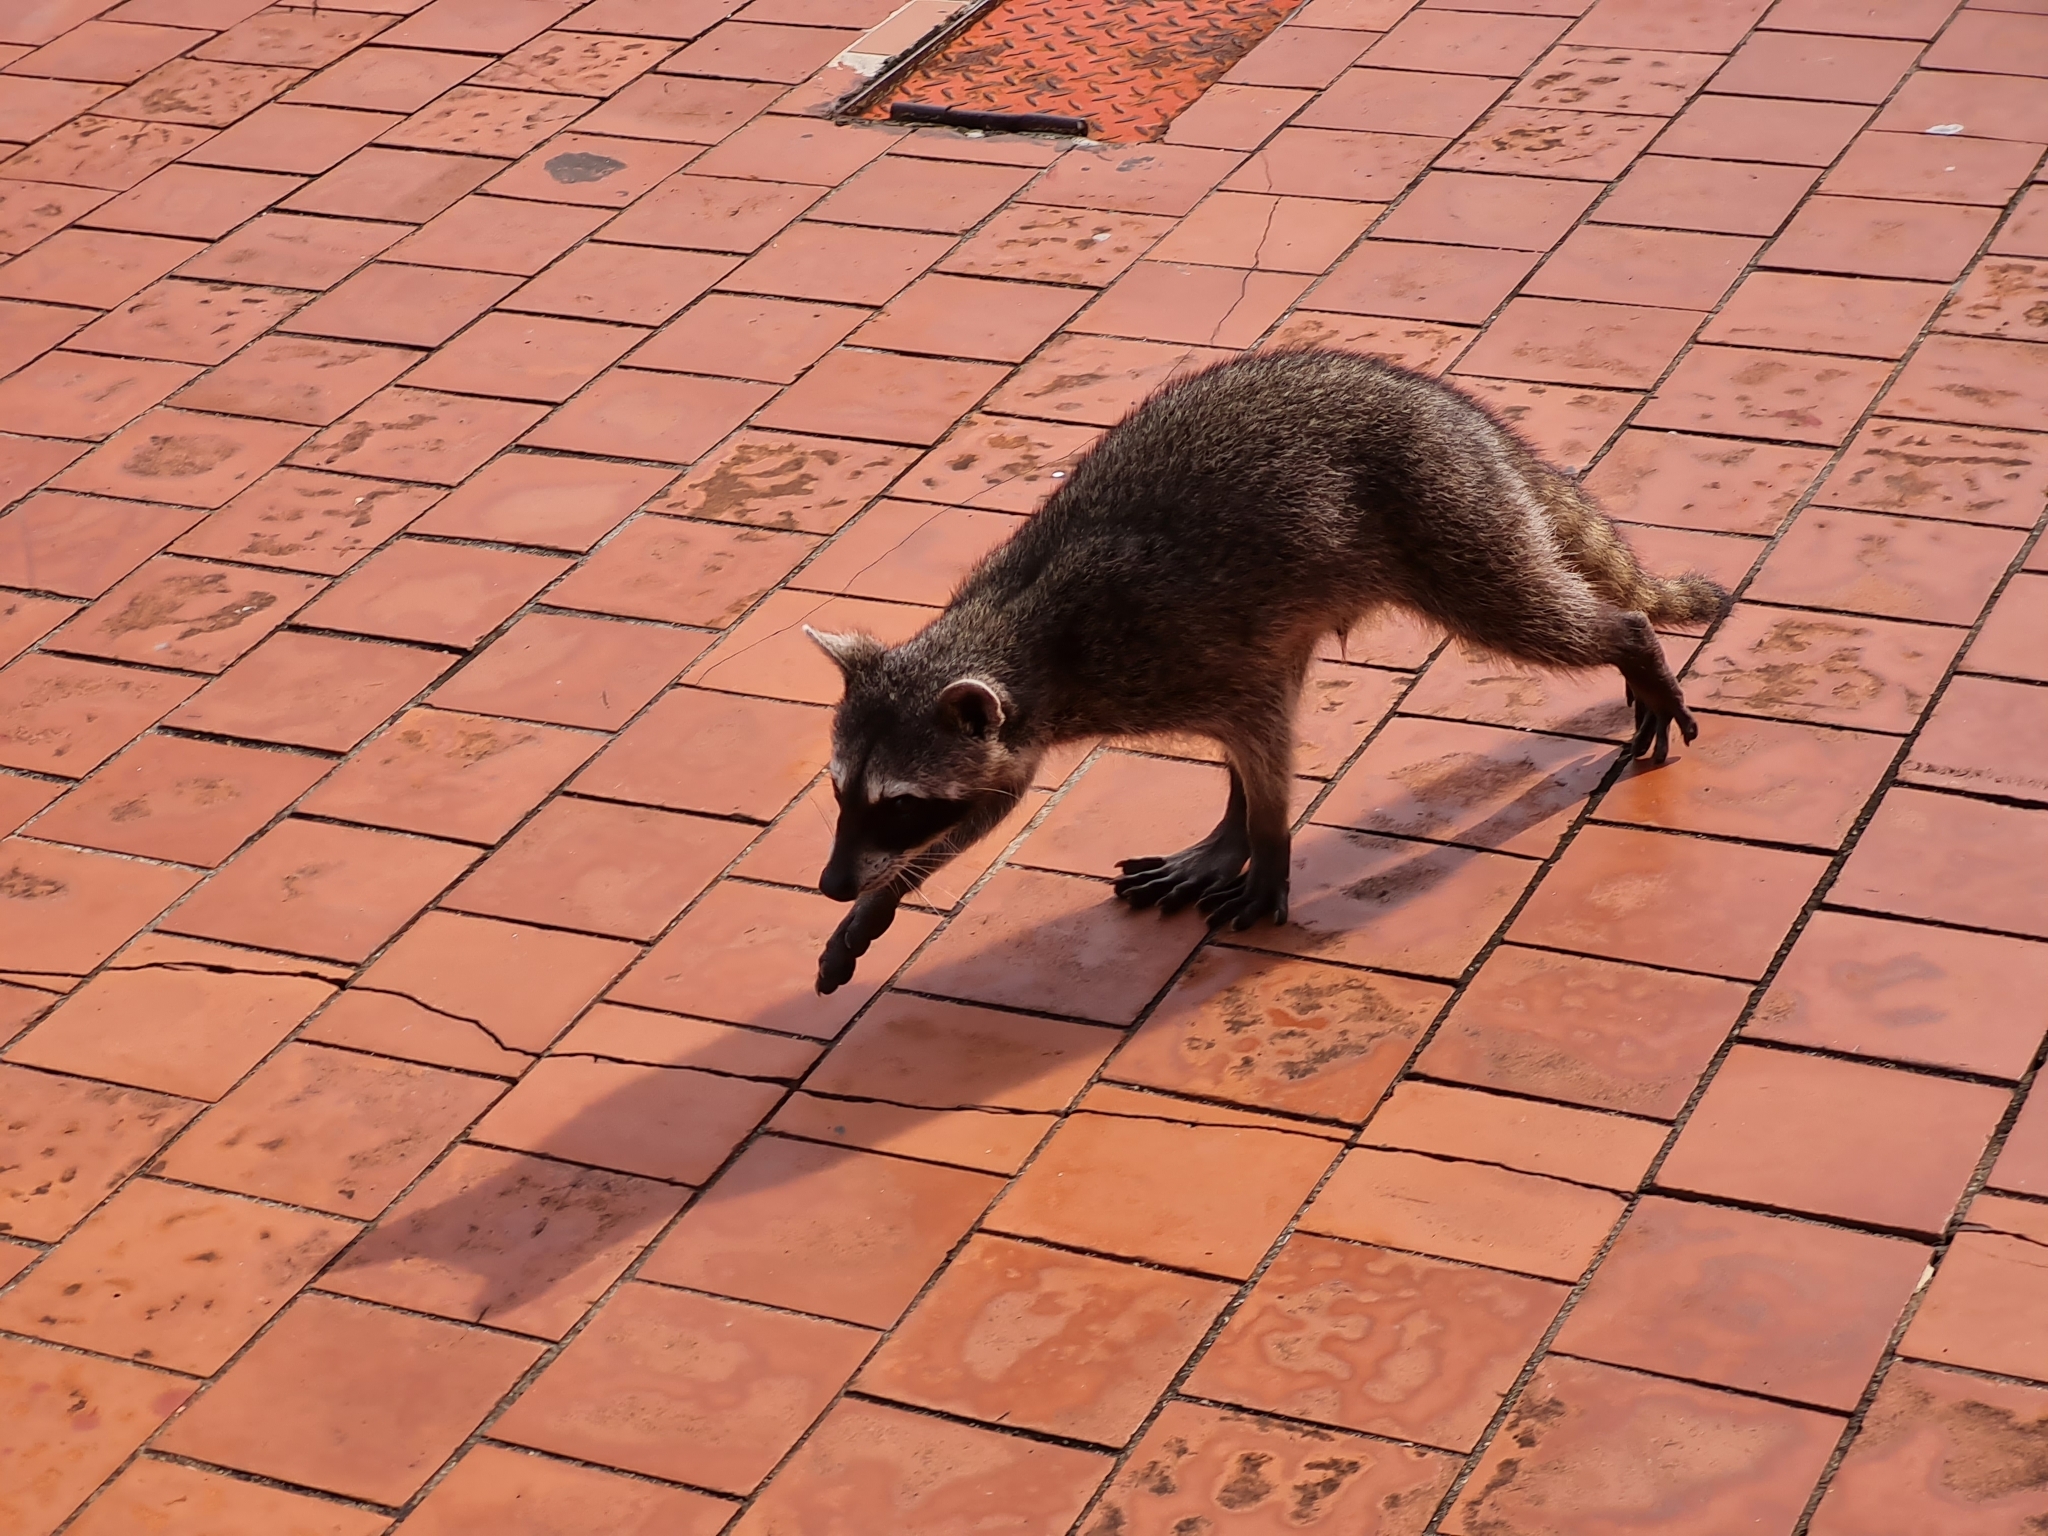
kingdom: Animalia
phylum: Chordata
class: Mammalia
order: Carnivora
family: Procyonidae
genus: Procyon
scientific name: Procyon lotor
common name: Raccoon
